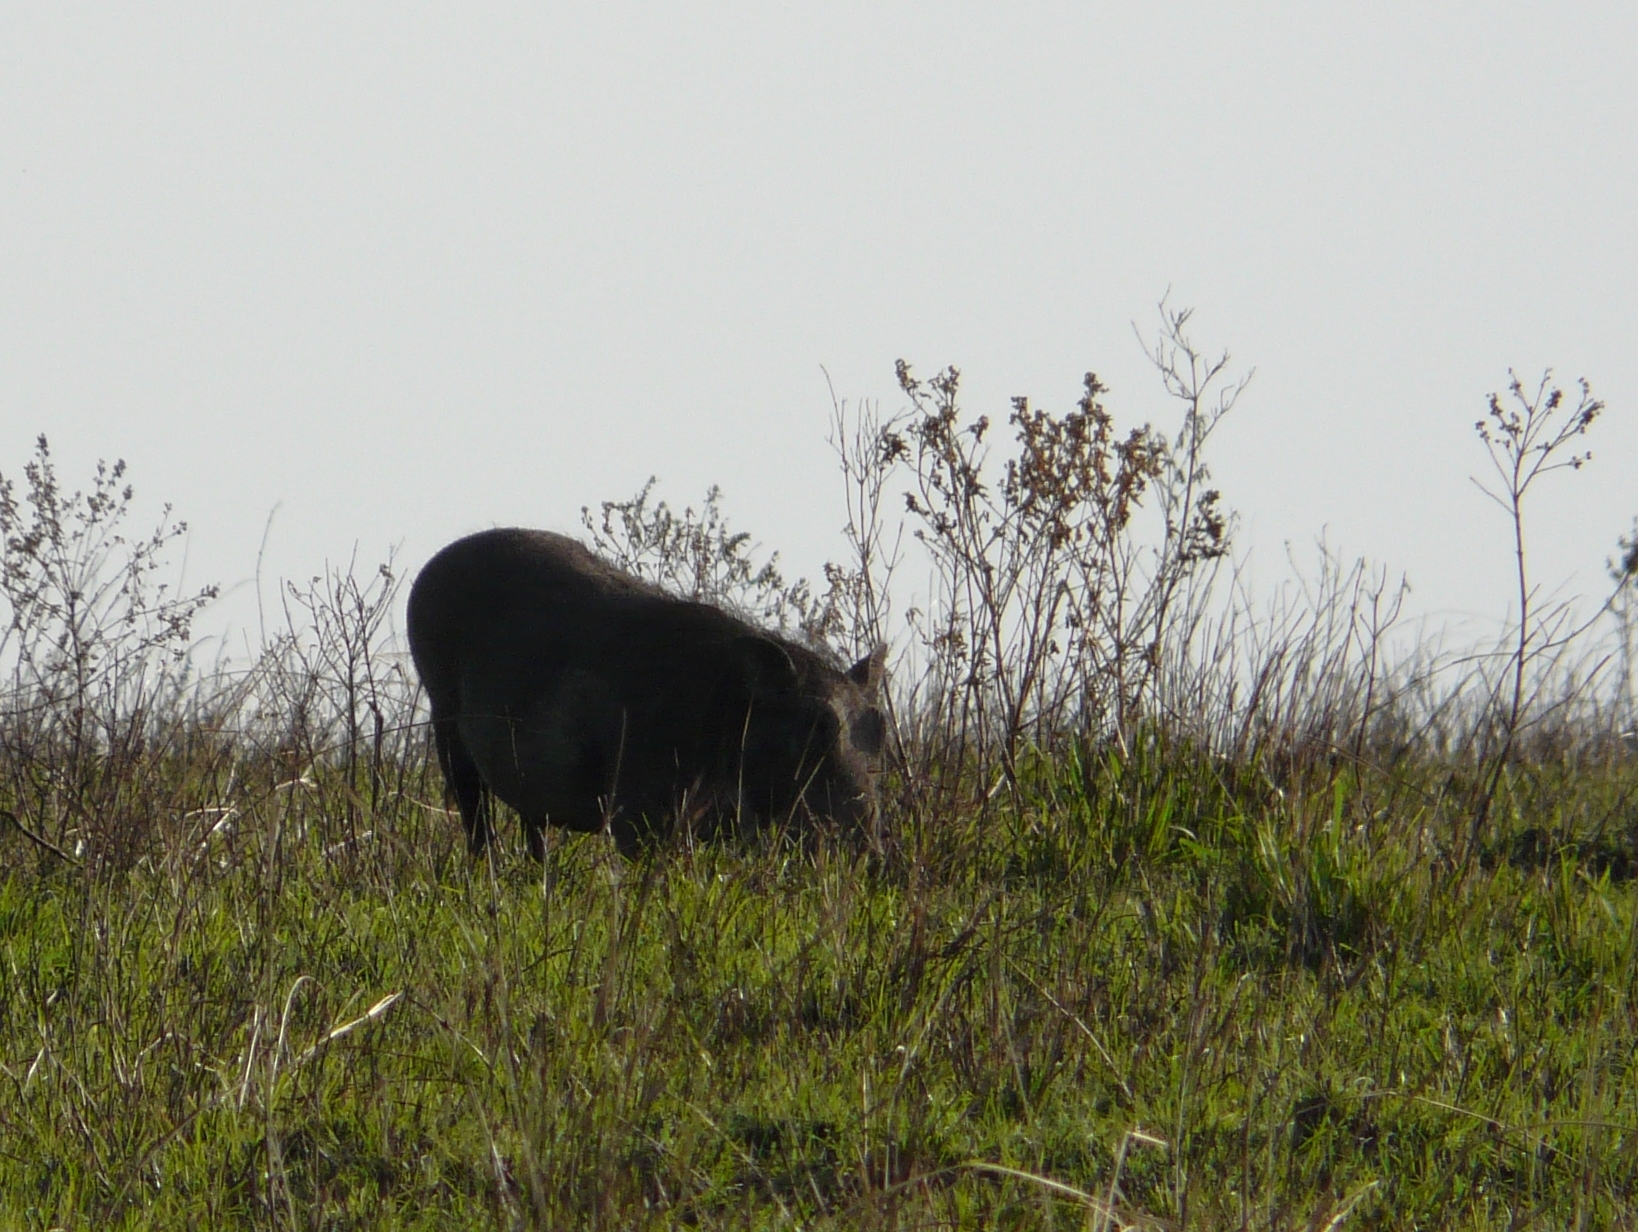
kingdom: Animalia
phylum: Chordata
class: Mammalia
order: Artiodactyla
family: Suidae
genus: Phacochoerus
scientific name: Phacochoerus africanus
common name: Common warthog
